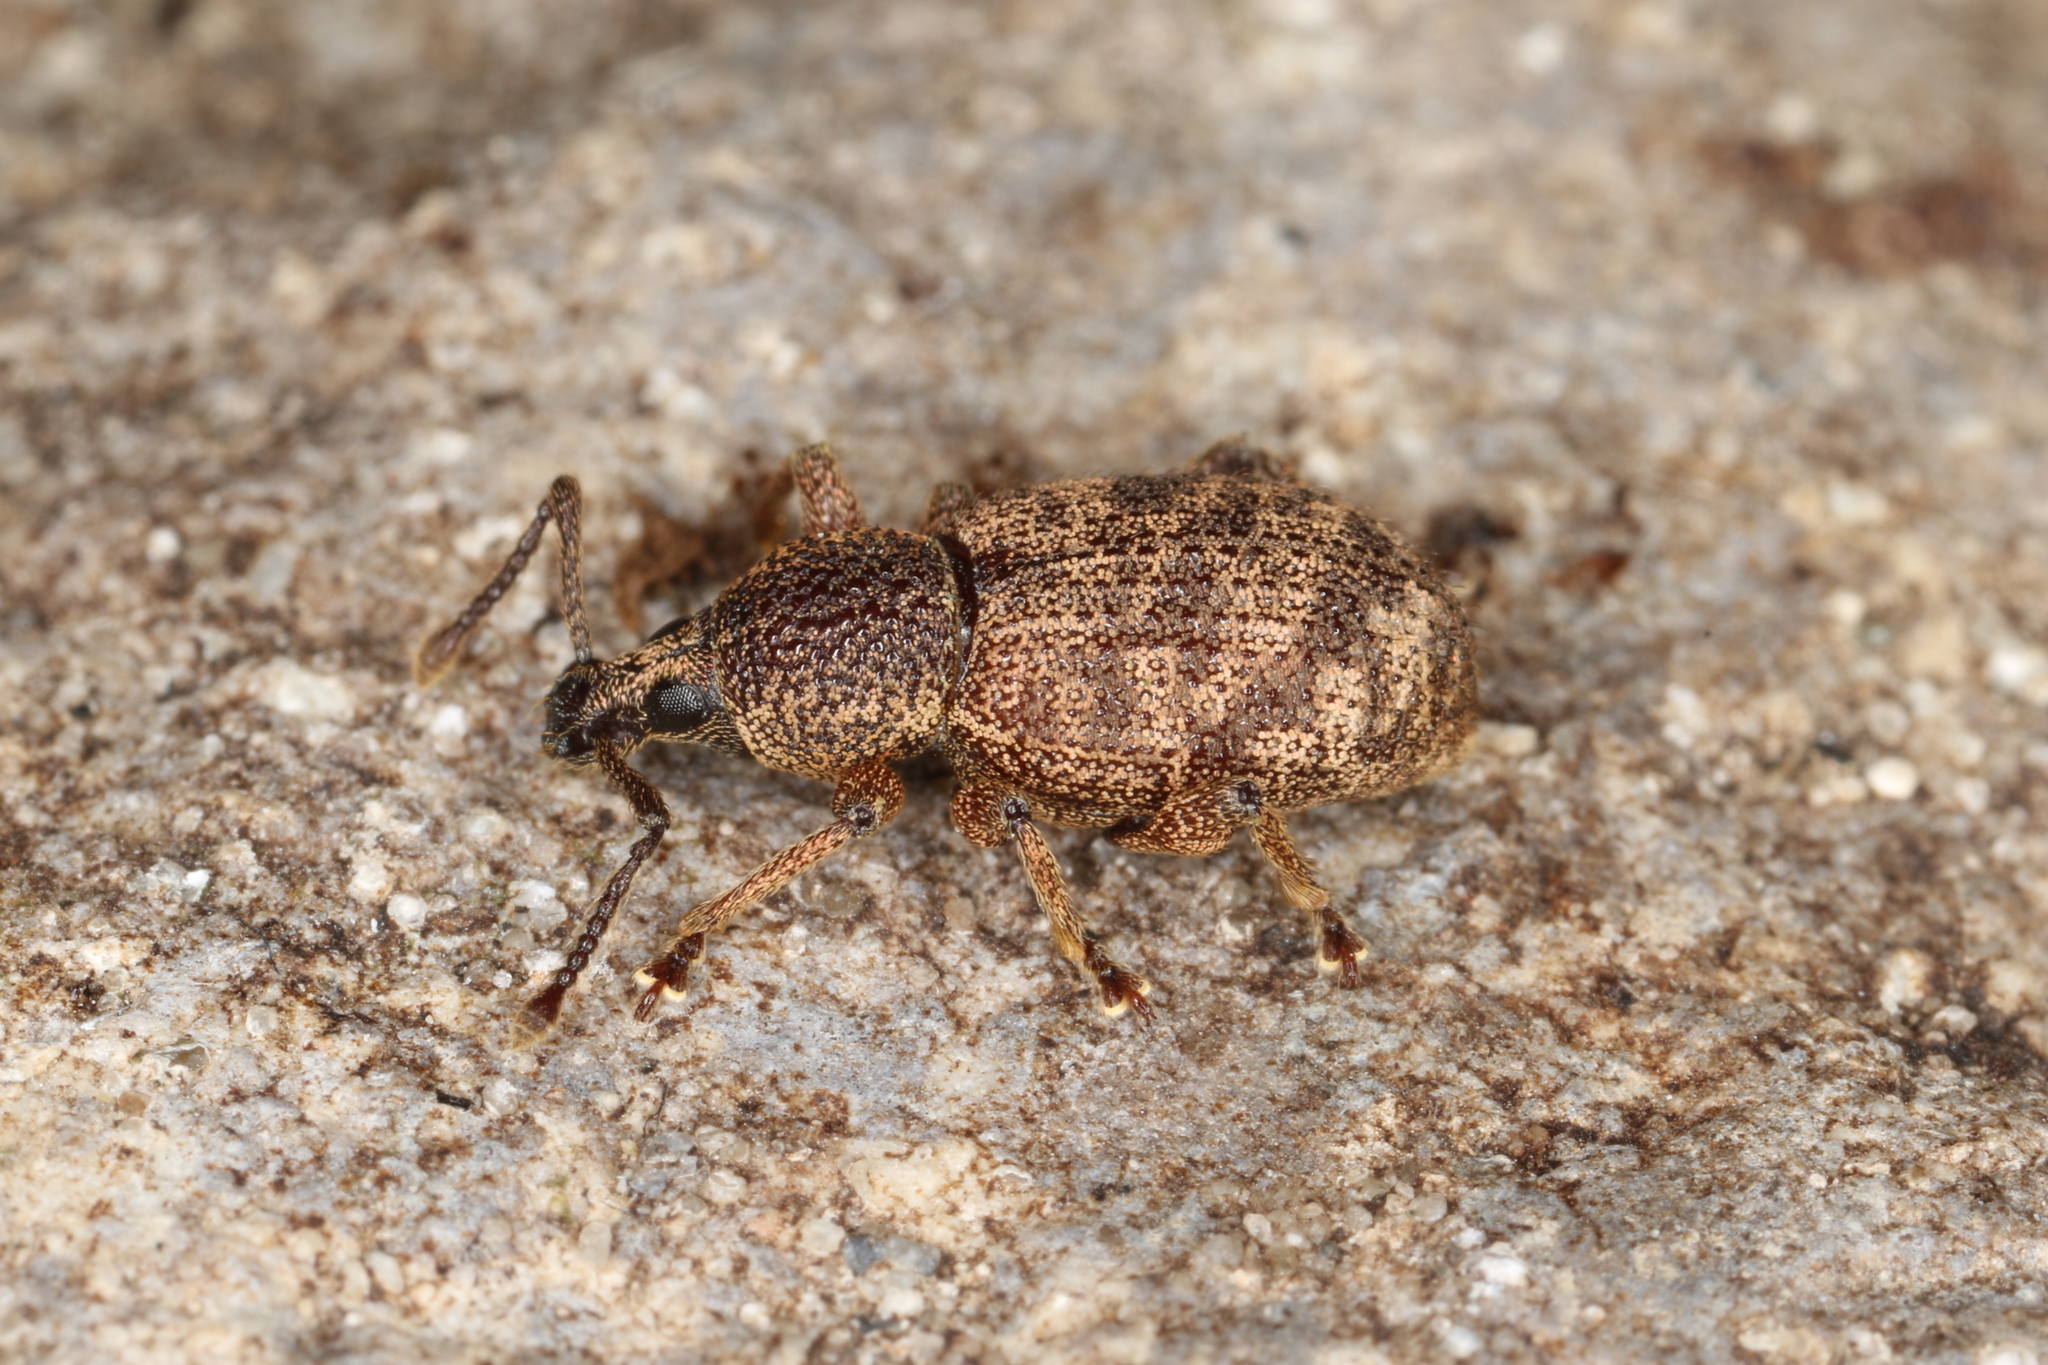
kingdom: Animalia
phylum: Arthropoda
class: Insecta
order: Coleoptera
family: Curculionidae
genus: Otiorhynchus
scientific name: Otiorhynchus singularis
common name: Clay-coloured weevil
